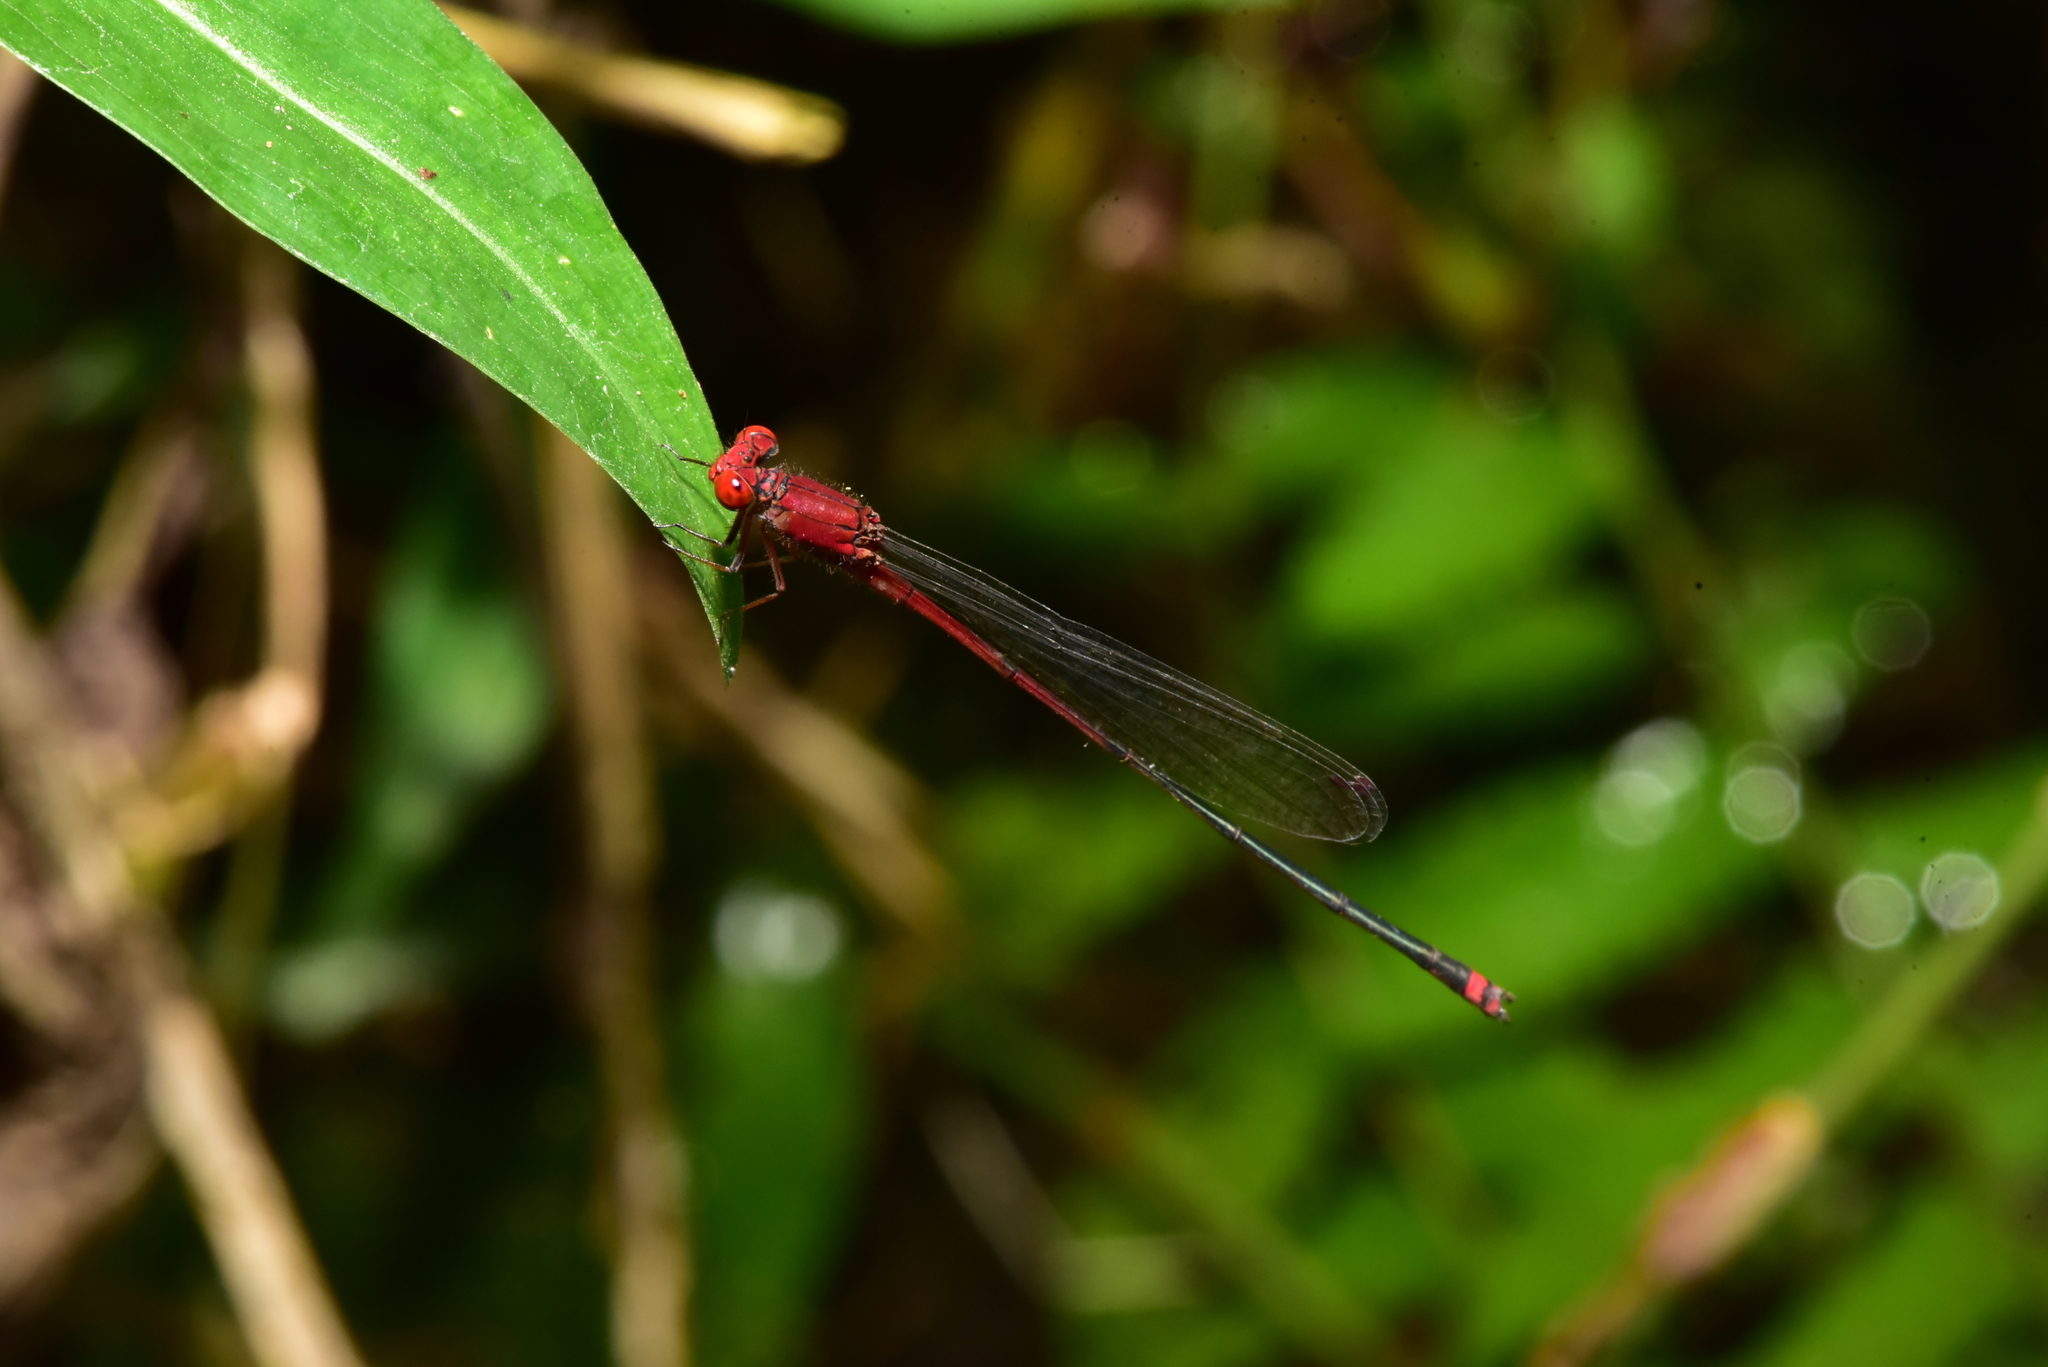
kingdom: Animalia
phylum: Arthropoda
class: Insecta
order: Odonata
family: Coenagrionidae
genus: Pseudagrion
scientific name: Pseudagrion pilidorsum
